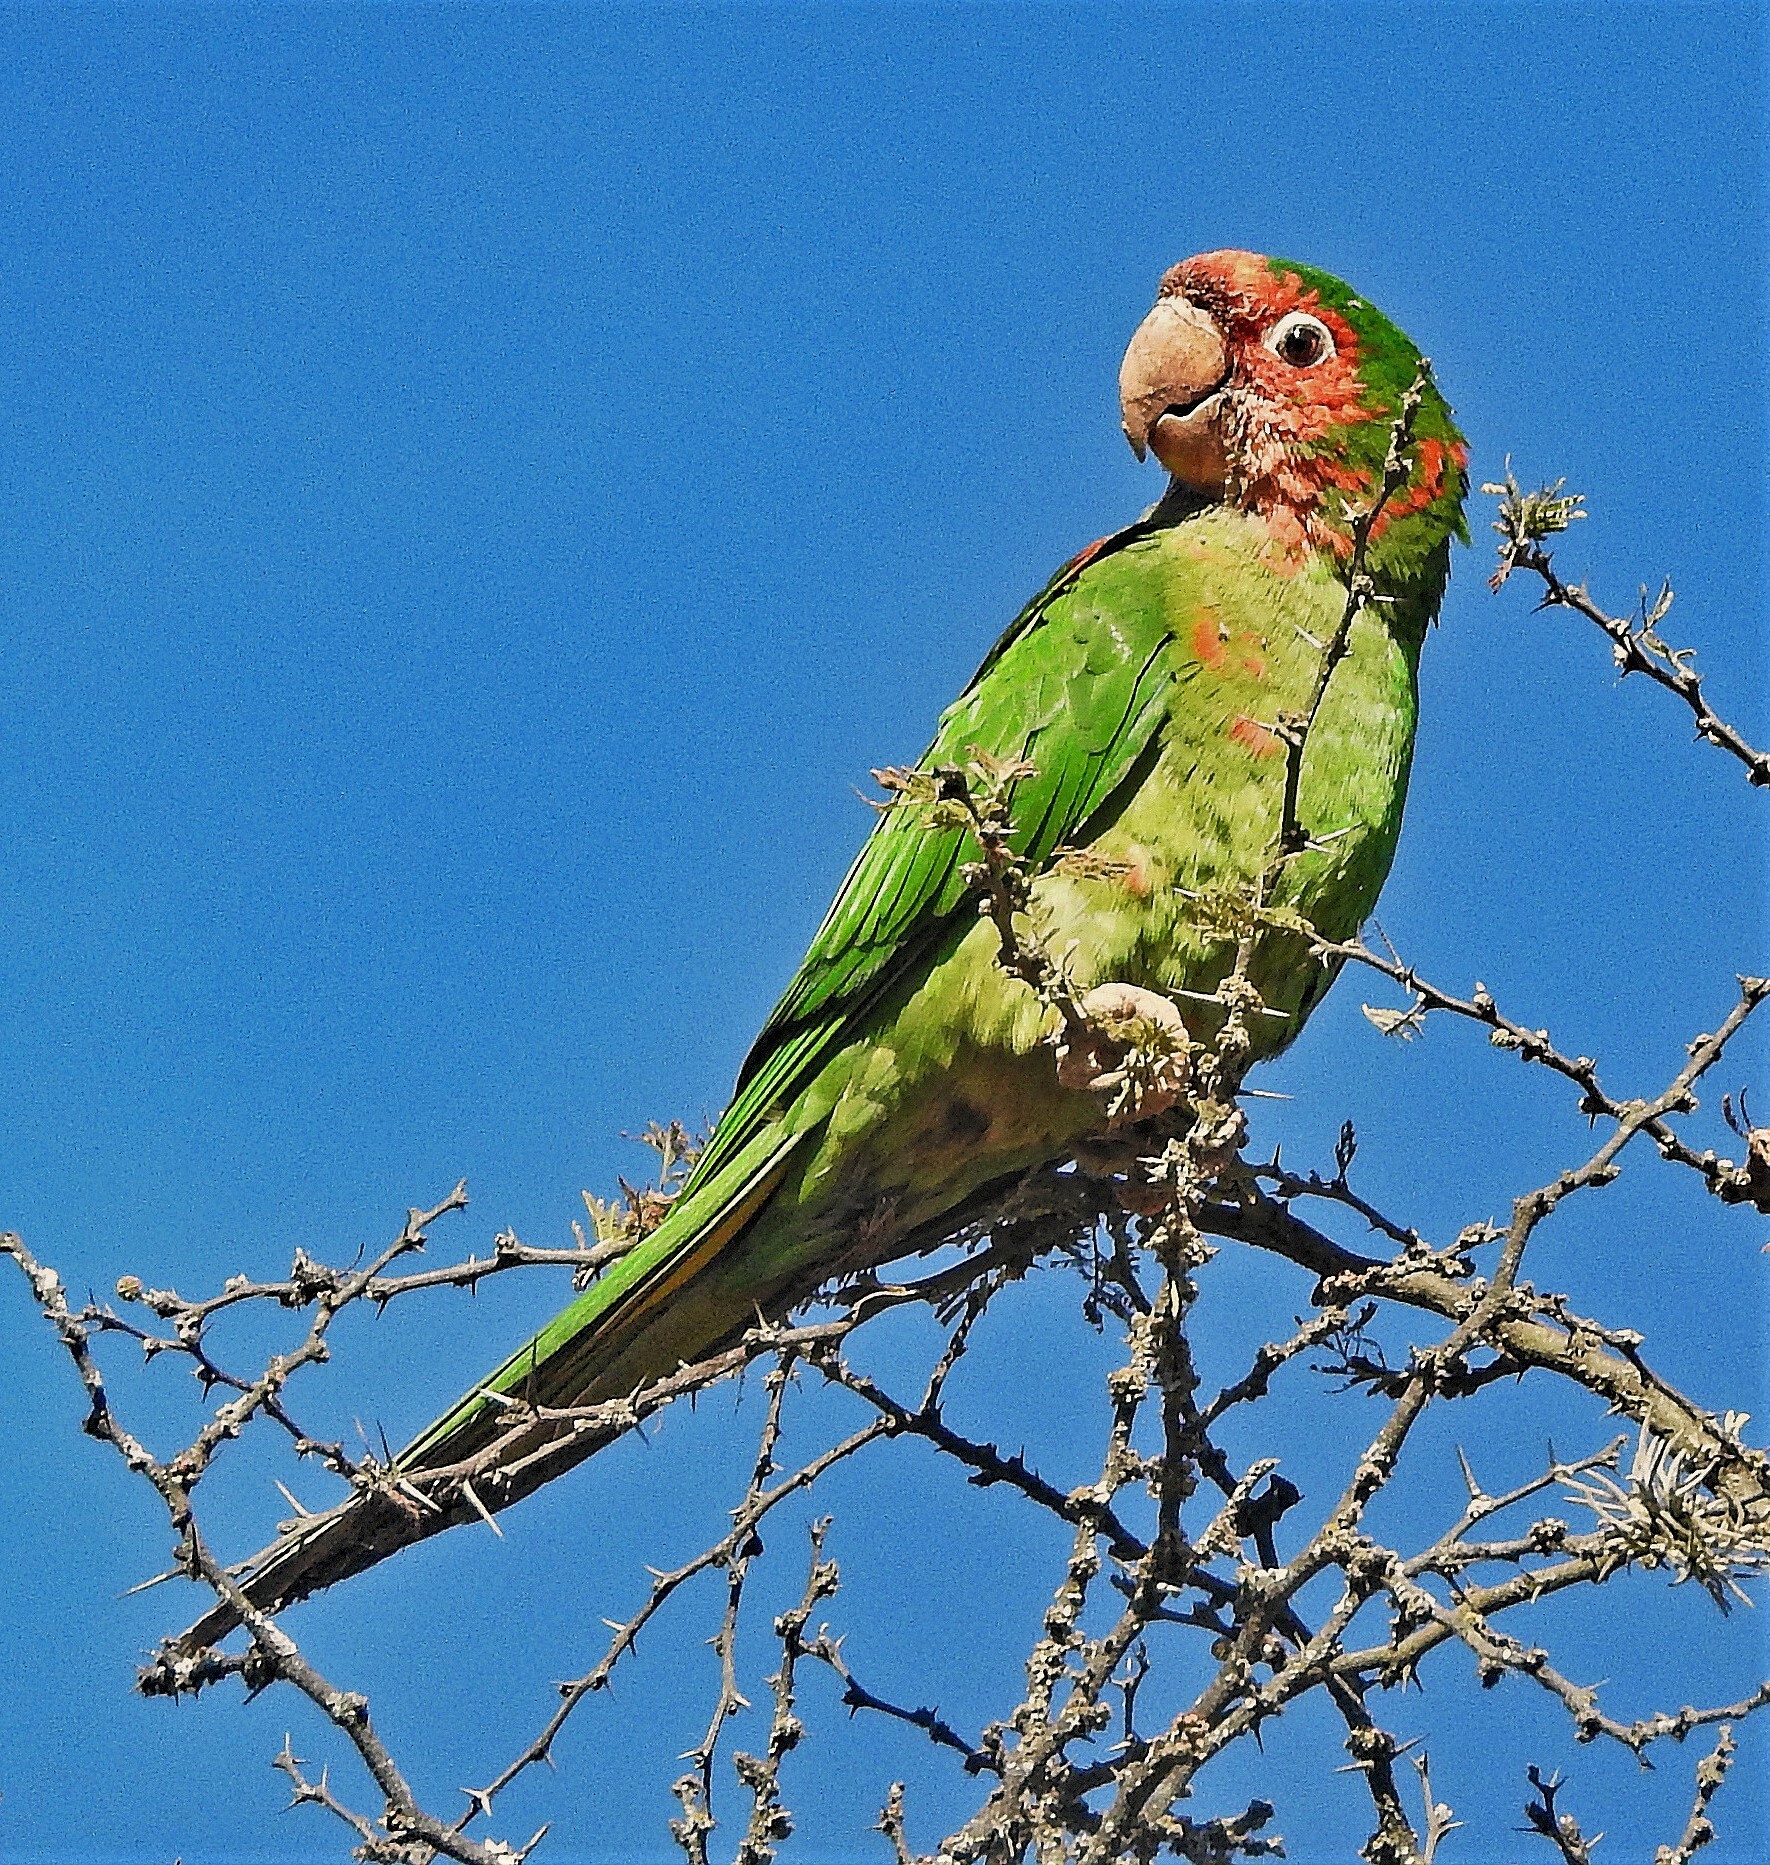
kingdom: Animalia
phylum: Chordata
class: Aves
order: Psittaciformes
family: Psittacidae
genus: Aratinga
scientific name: Aratinga mitrata
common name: Mitred parakeet
